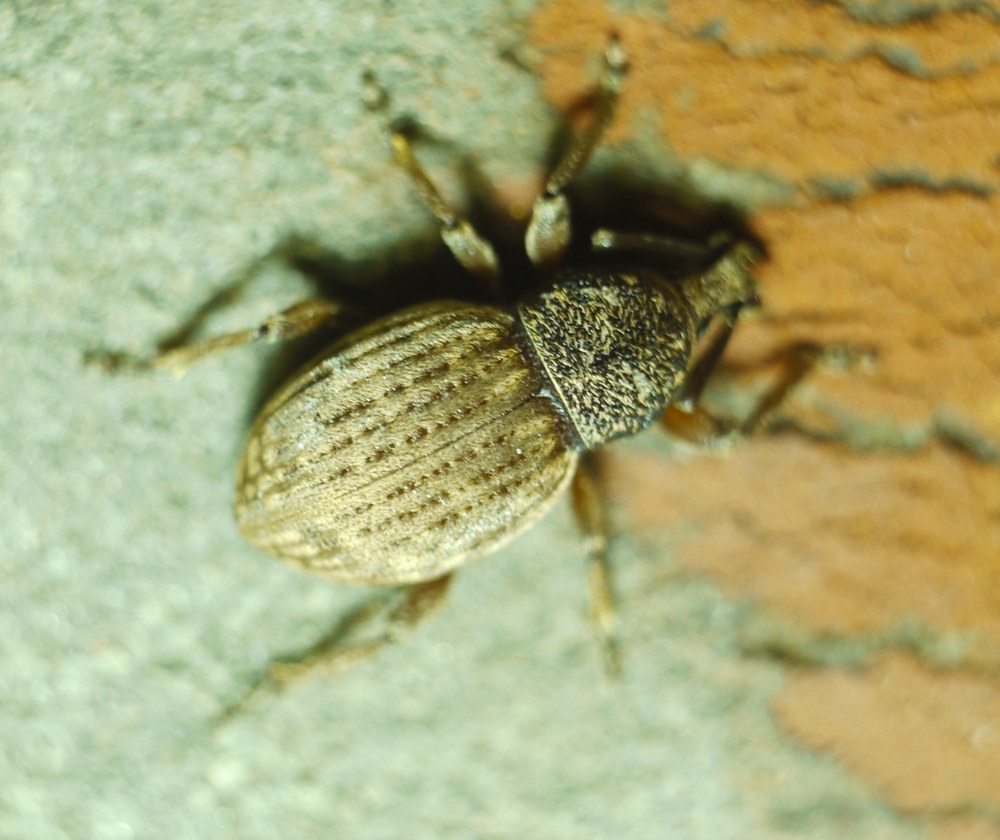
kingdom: Animalia
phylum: Arthropoda
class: Insecta
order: Coleoptera
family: Curculionidae
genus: Otiorhynchus
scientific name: Otiorhynchus raucus
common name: Weevil
